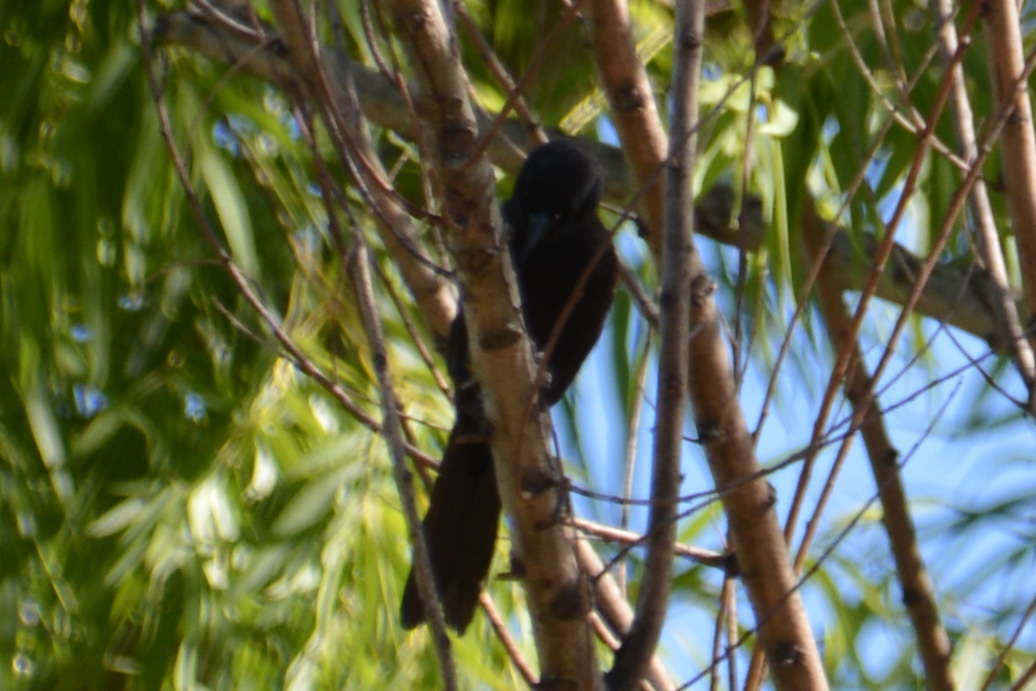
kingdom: Animalia
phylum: Chordata
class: Aves
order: Passeriformes
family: Icteridae
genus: Icterus
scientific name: Icterus cayanensis
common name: Epaulet oriole
